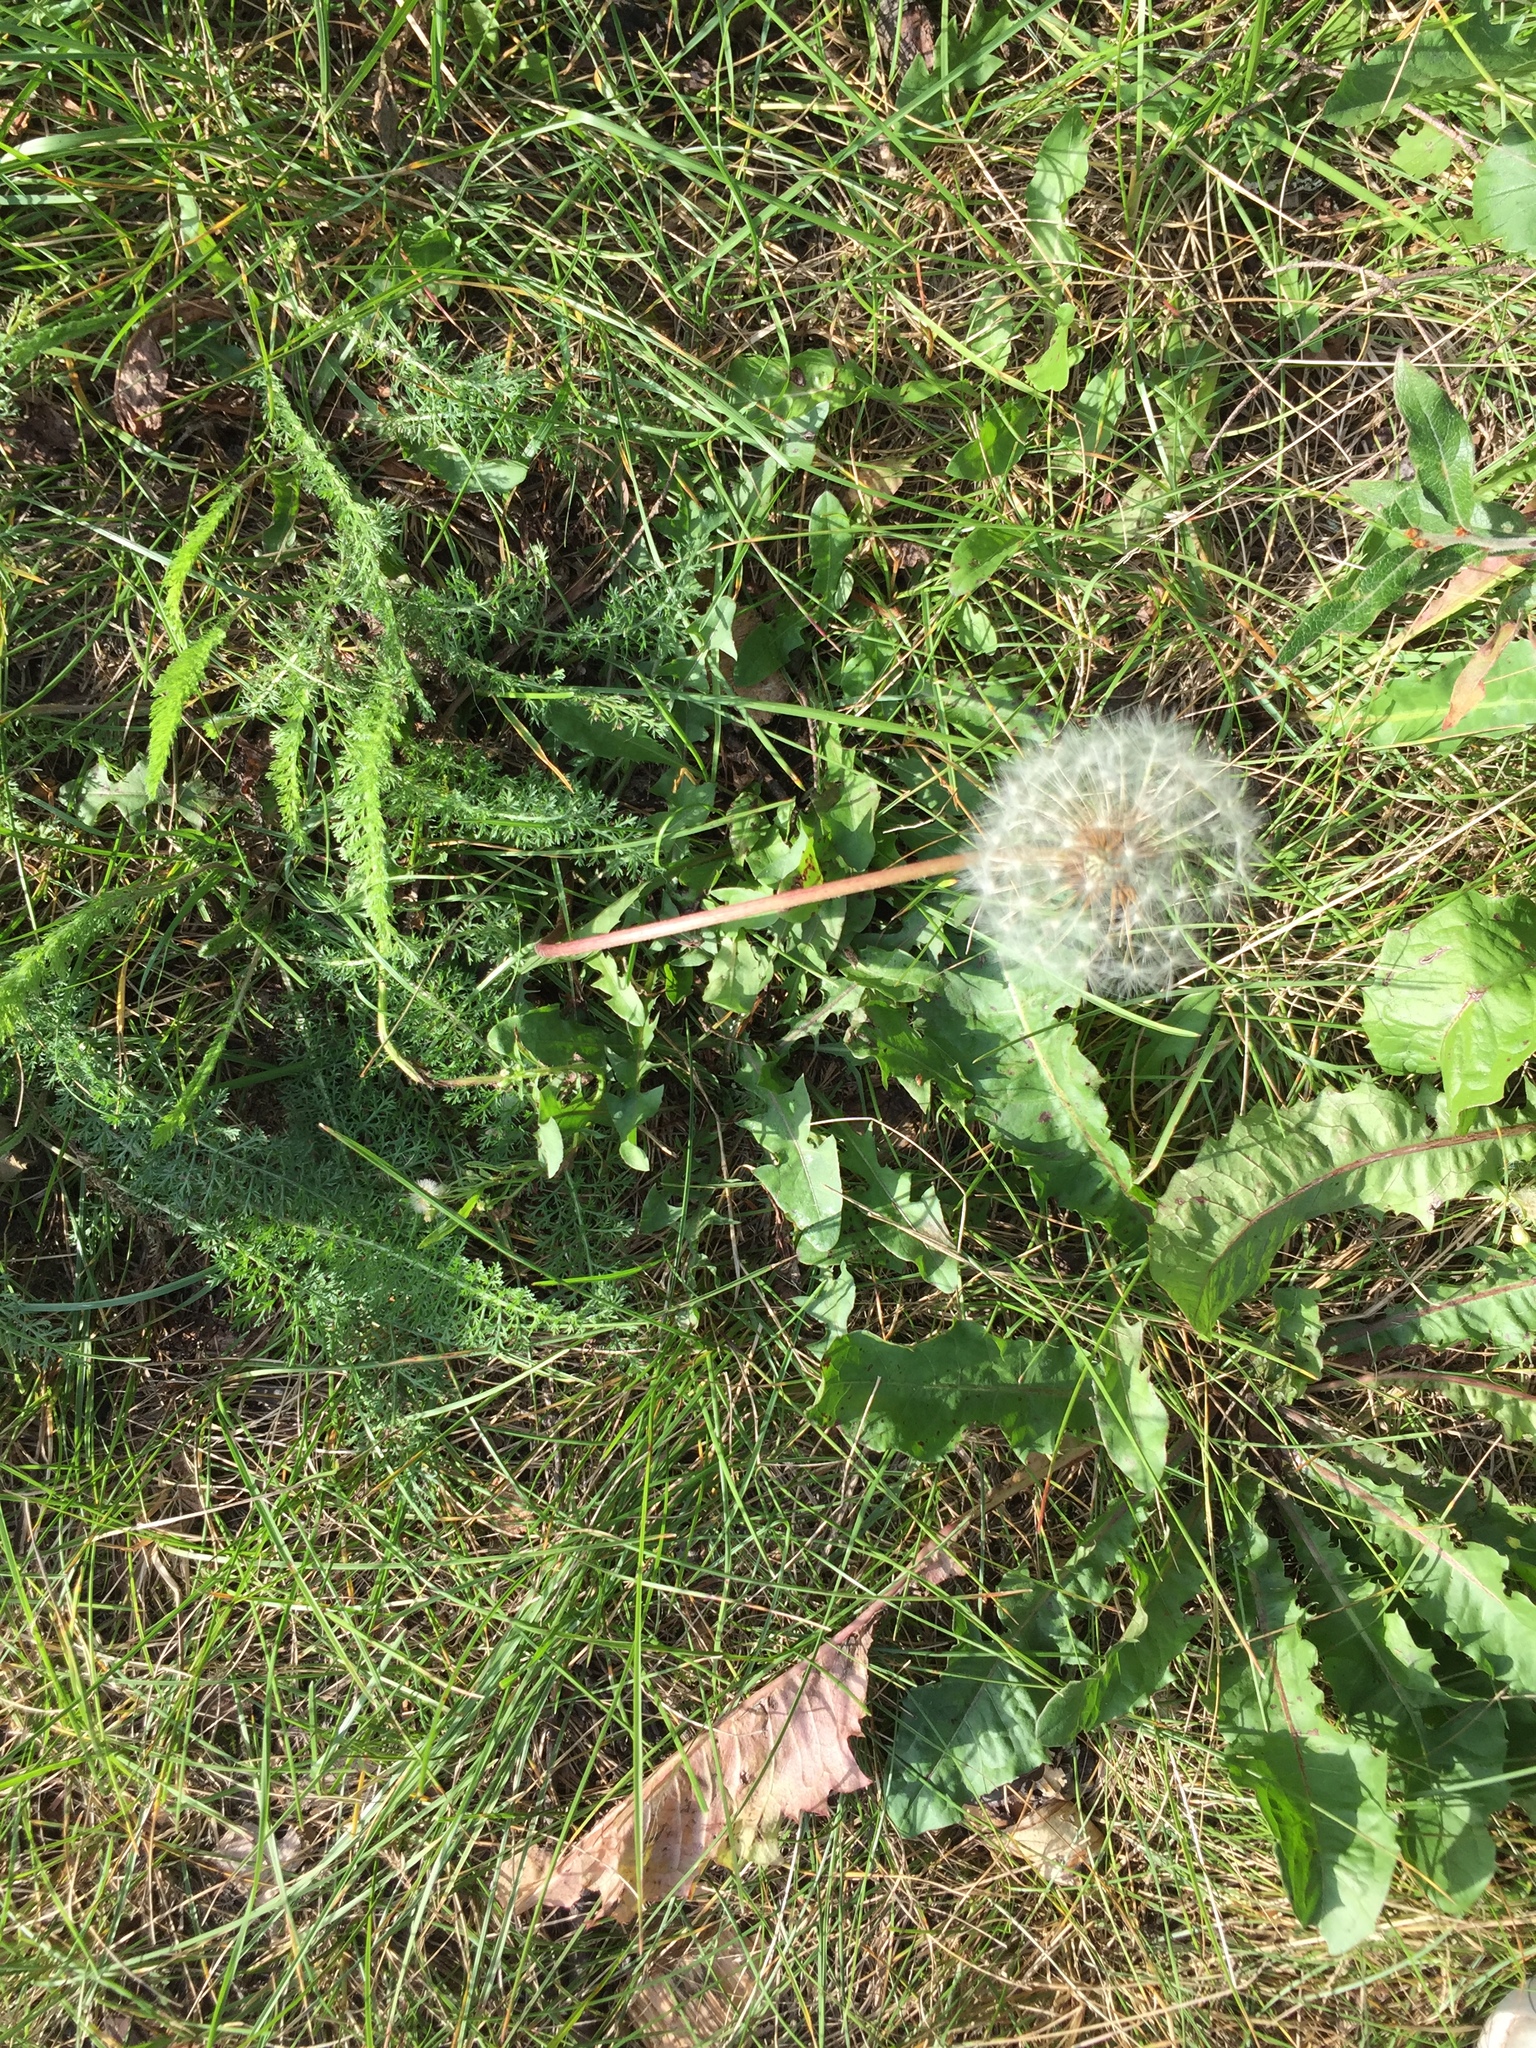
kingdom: Plantae
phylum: Tracheophyta
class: Magnoliopsida
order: Asterales
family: Asteraceae
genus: Taraxacum
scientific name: Taraxacum officinale
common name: Common dandelion
